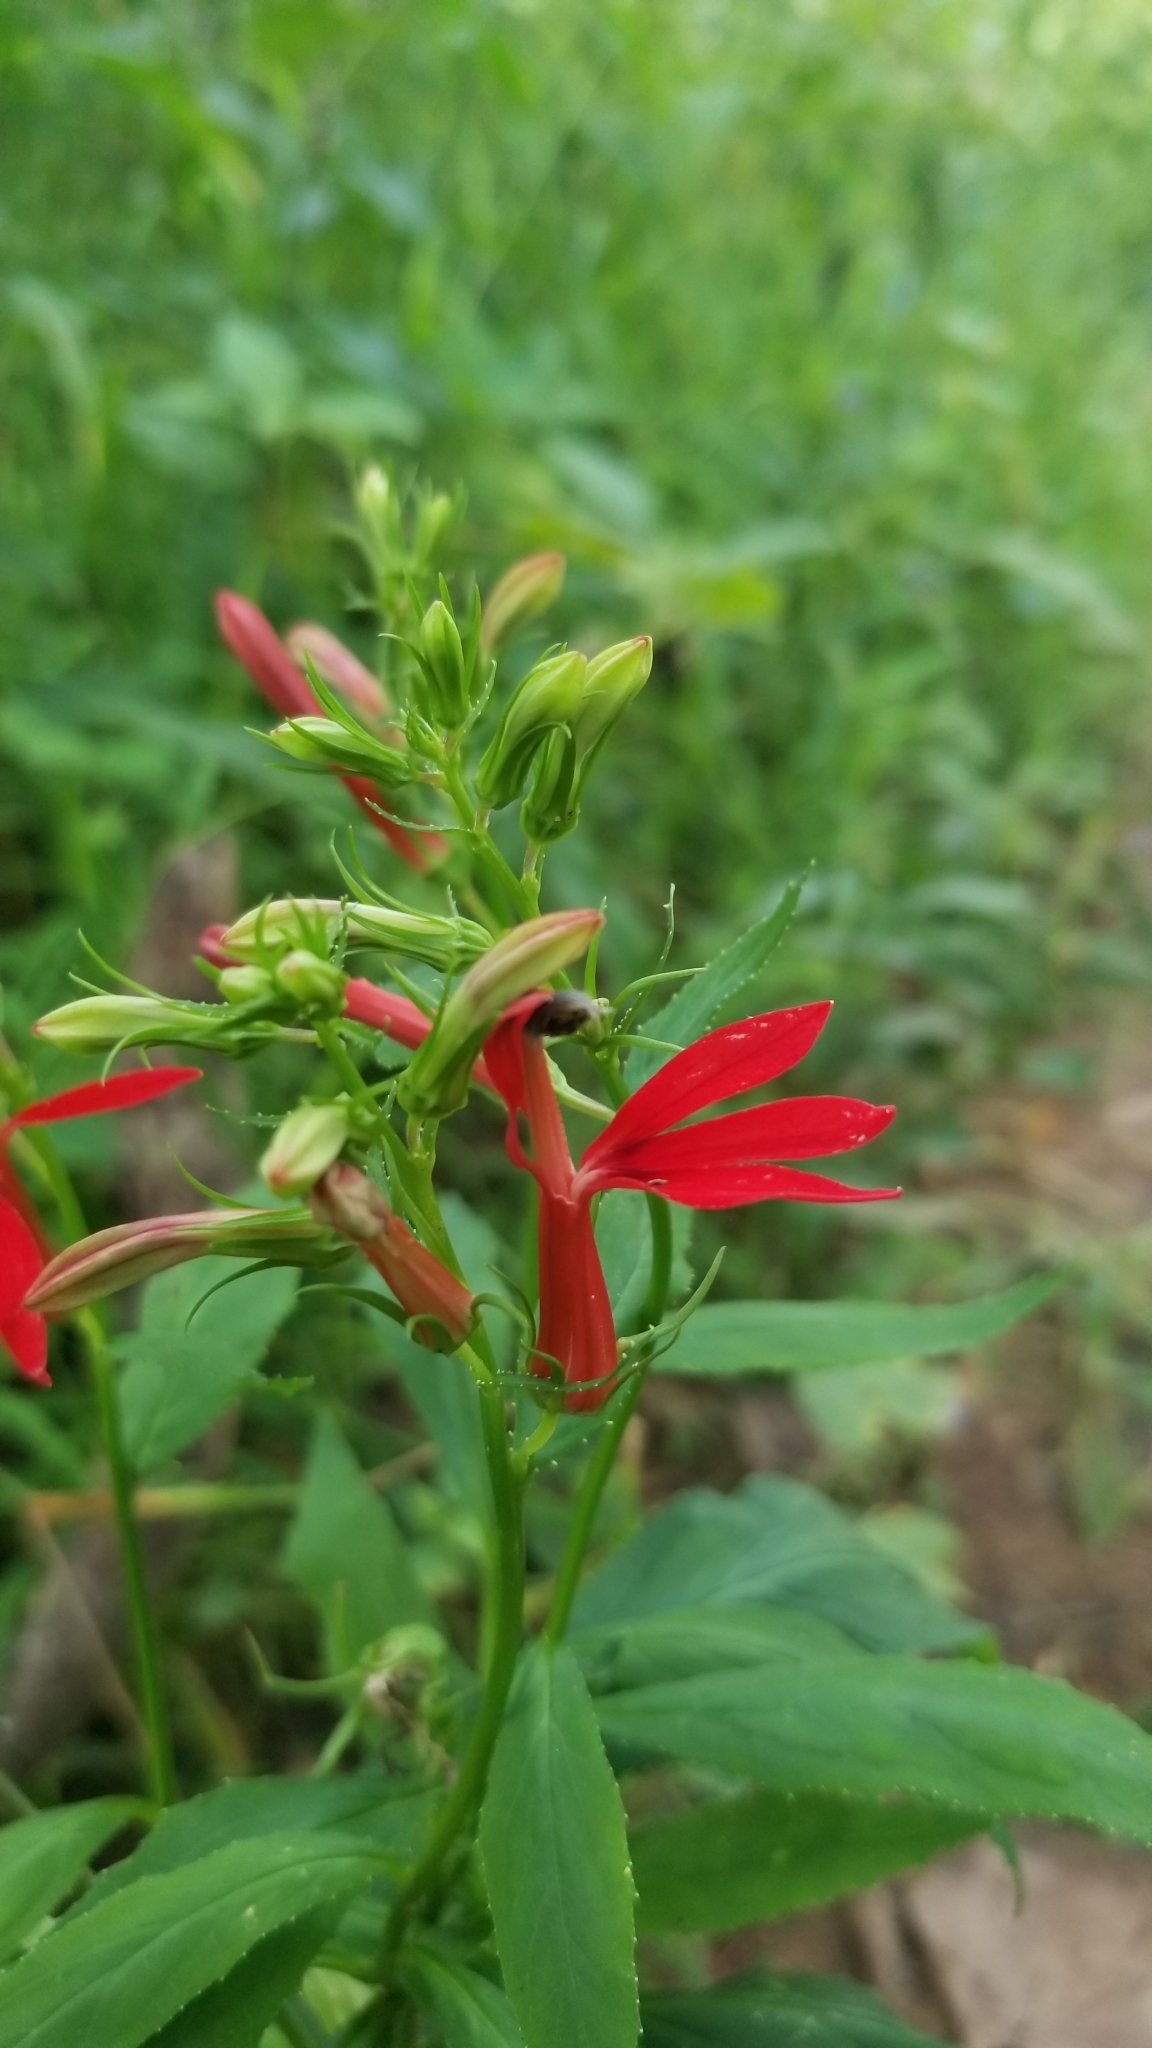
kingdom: Plantae
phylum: Tracheophyta
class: Magnoliopsida
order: Asterales
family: Campanulaceae
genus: Lobelia
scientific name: Lobelia cardinalis
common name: Cardinal flower
